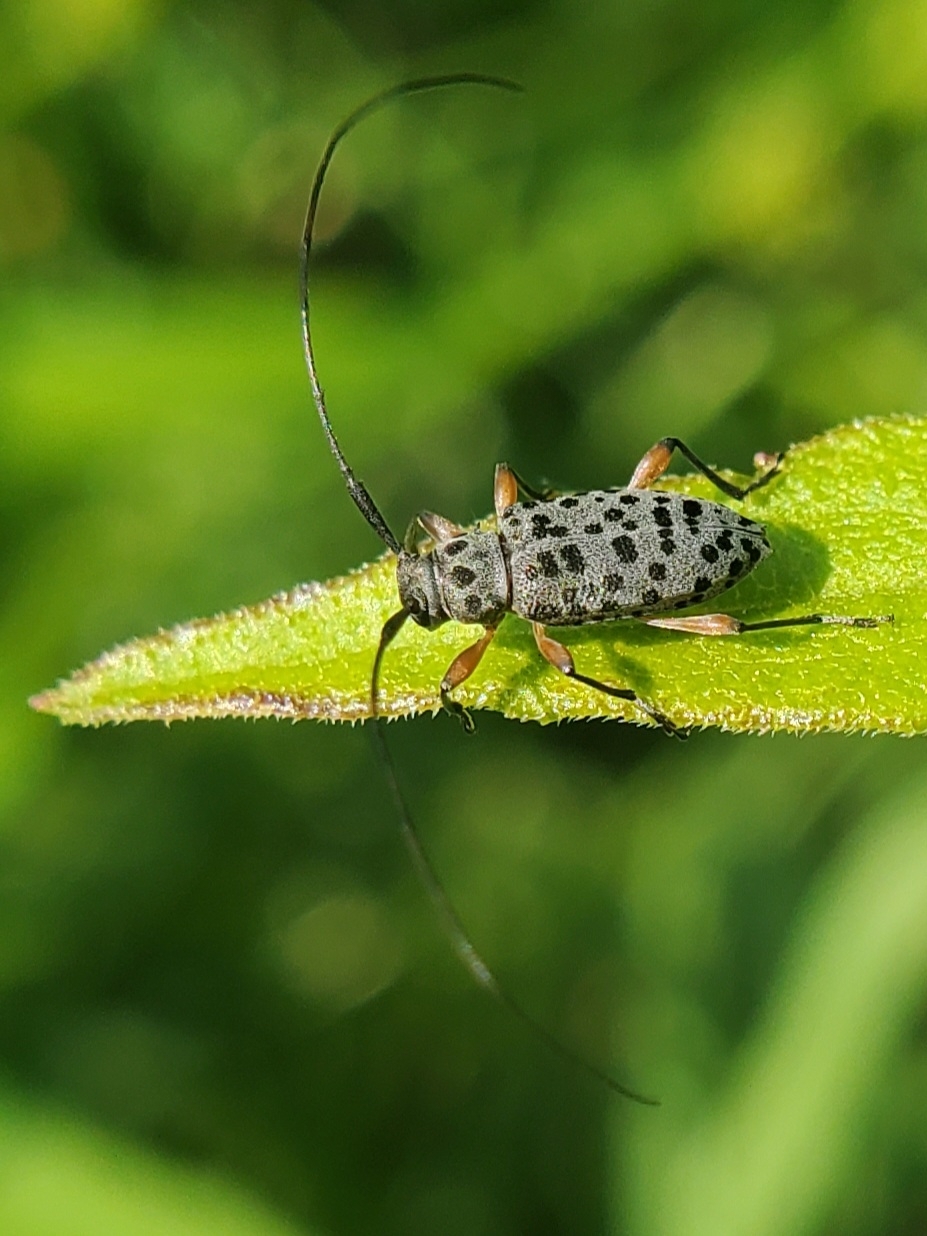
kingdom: Animalia
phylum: Arthropoda
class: Insecta
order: Coleoptera
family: Cerambycidae
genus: Hyperplatys
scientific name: Hyperplatys aspersa
